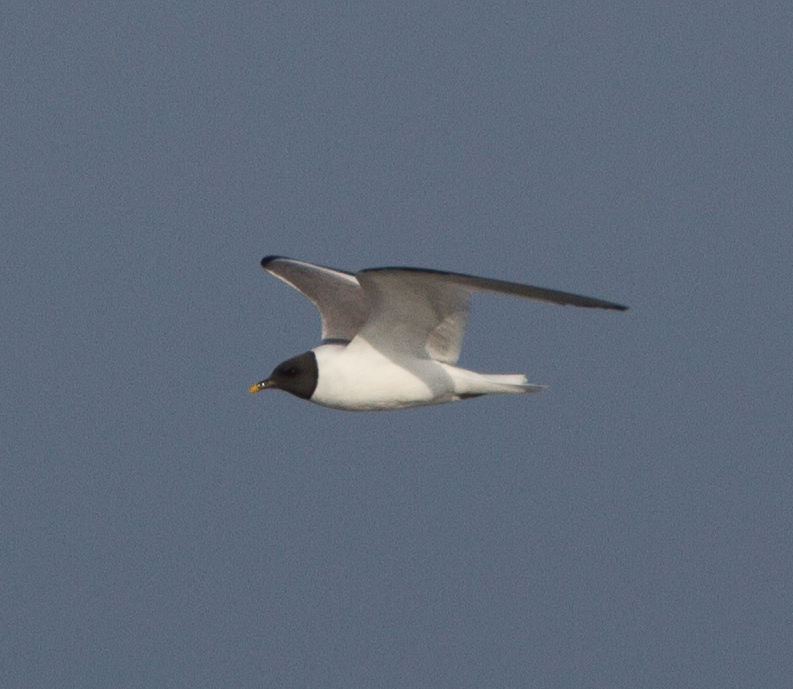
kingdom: Animalia
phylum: Chordata
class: Aves
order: Charadriiformes
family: Laridae
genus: Xema
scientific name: Xema sabini
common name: Sabine's gull
